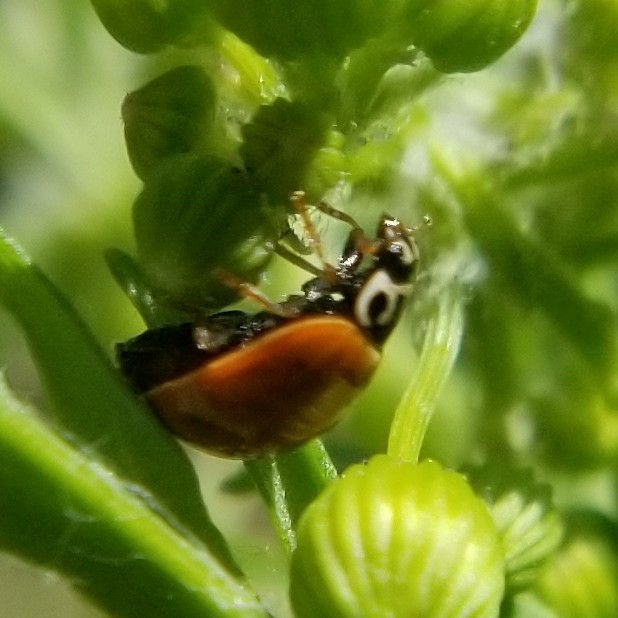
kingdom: Animalia
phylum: Arthropoda
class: Insecta
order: Coleoptera
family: Coccinellidae
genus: Cycloneda
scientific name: Cycloneda munda
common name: Polished lady beetle
